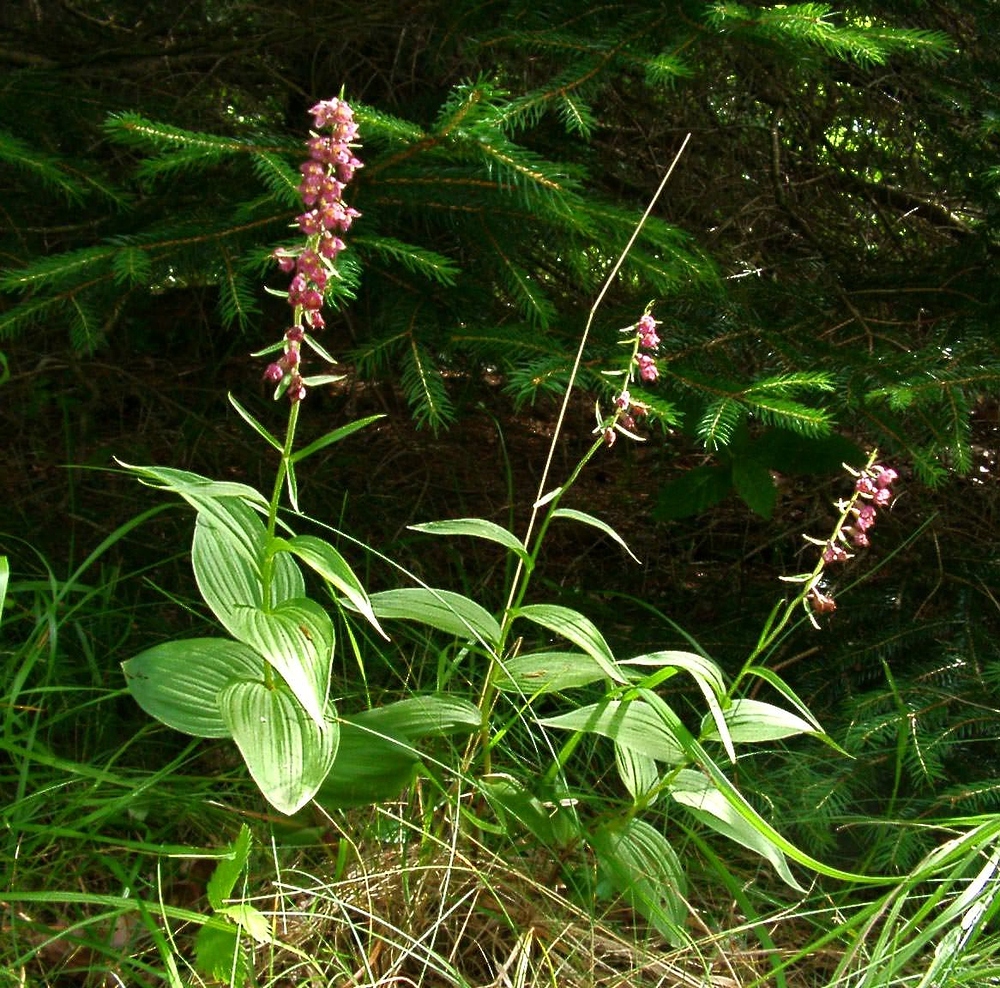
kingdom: Plantae
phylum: Tracheophyta
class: Liliopsida
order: Asparagales
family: Orchidaceae
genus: Epipactis
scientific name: Epipactis helleborine
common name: Broad-leaved helleborine
